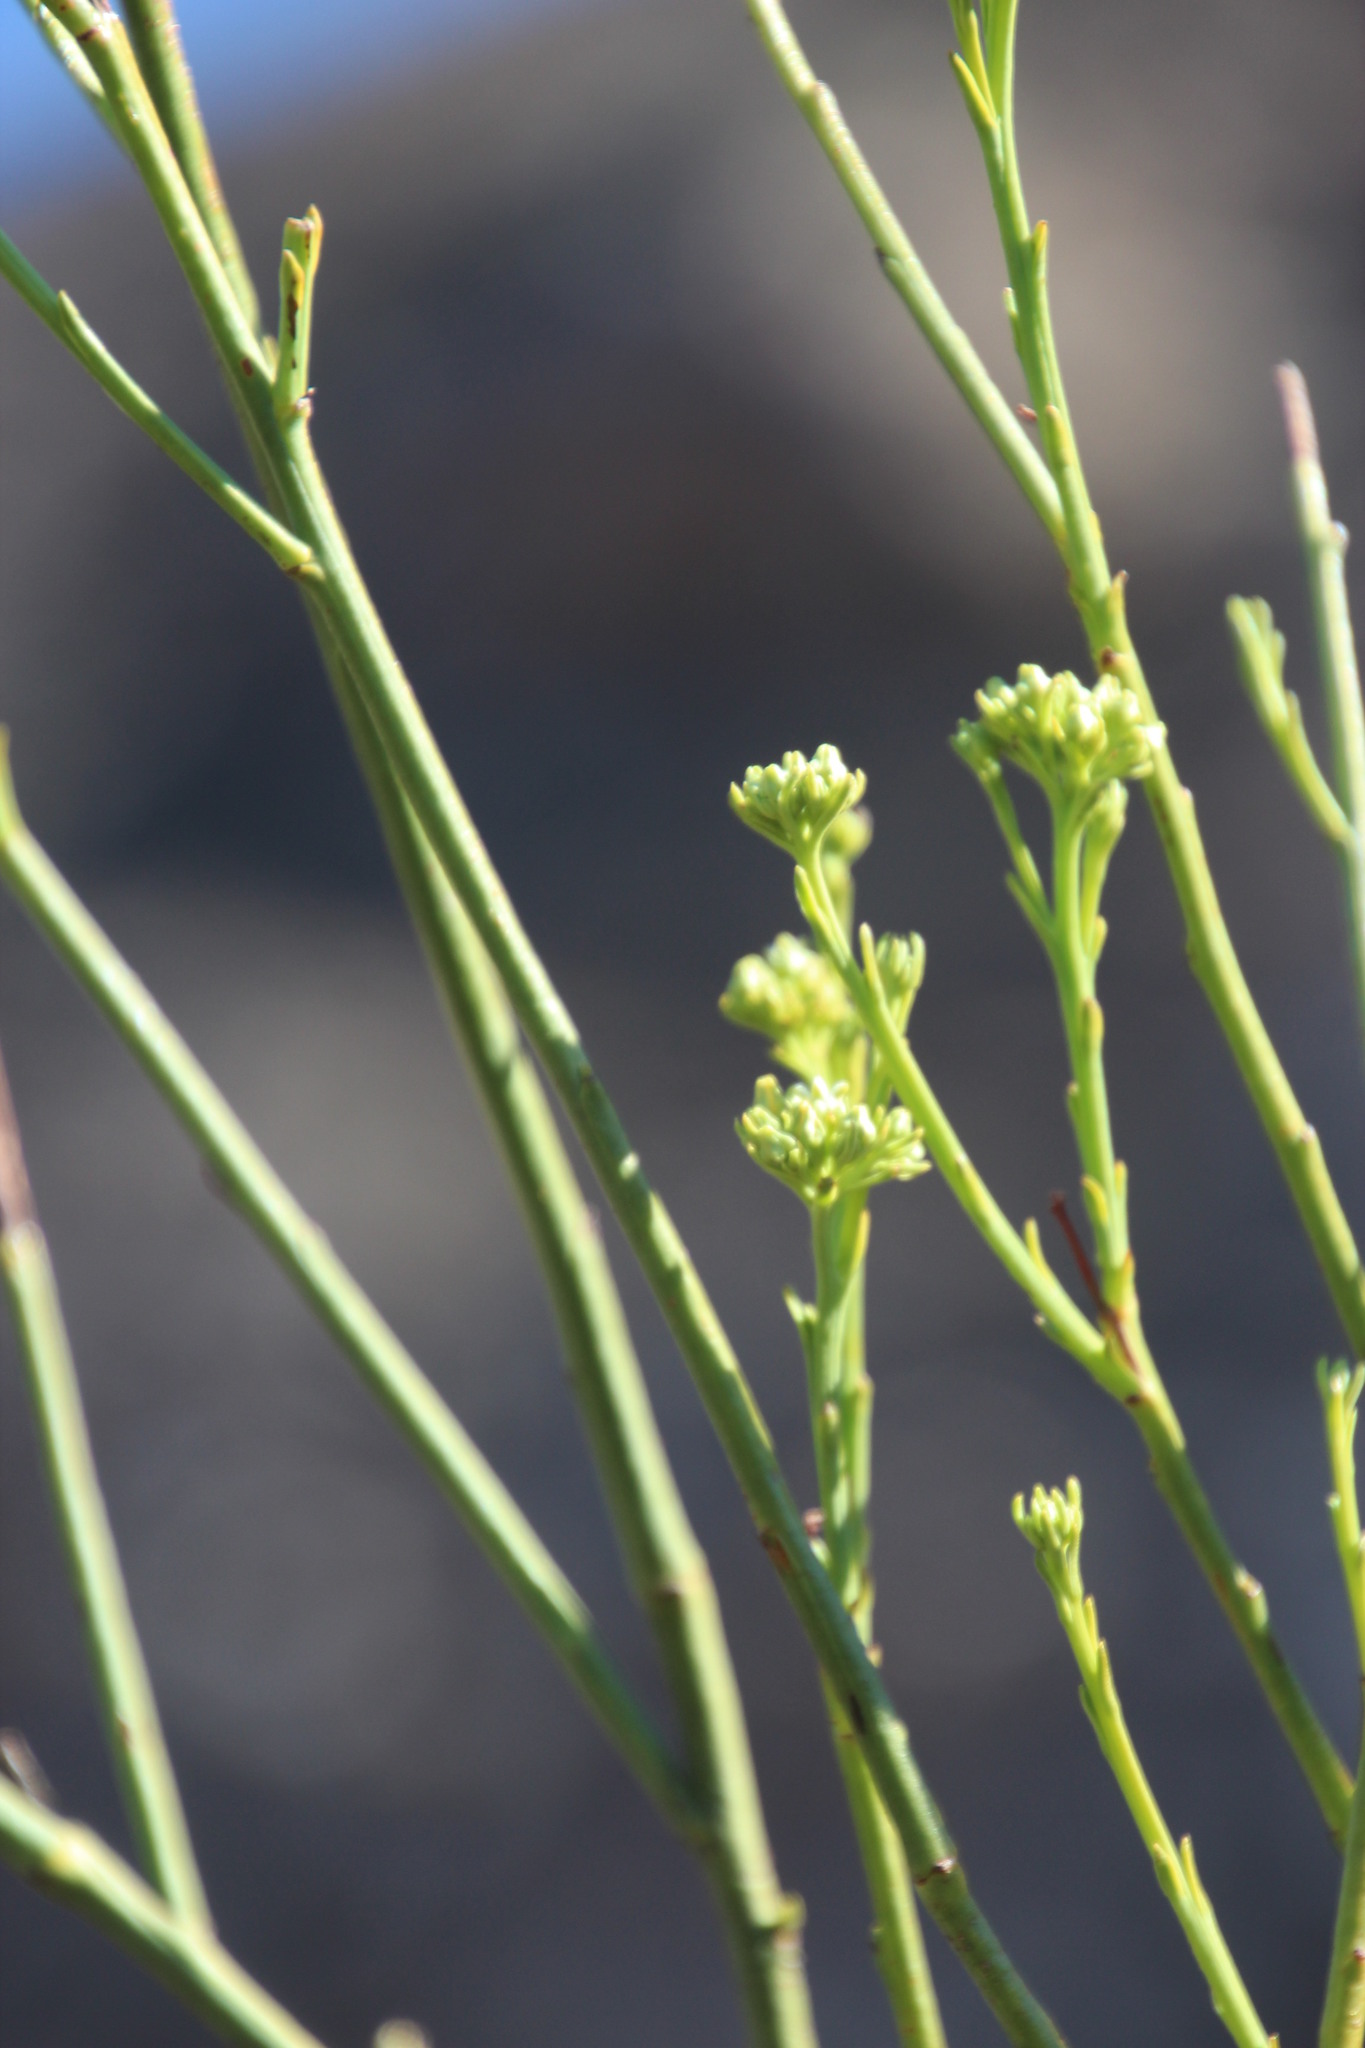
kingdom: Plantae
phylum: Tracheophyta
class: Magnoliopsida
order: Santalales
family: Thesiaceae
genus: Thesium
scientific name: Thesium strictum
